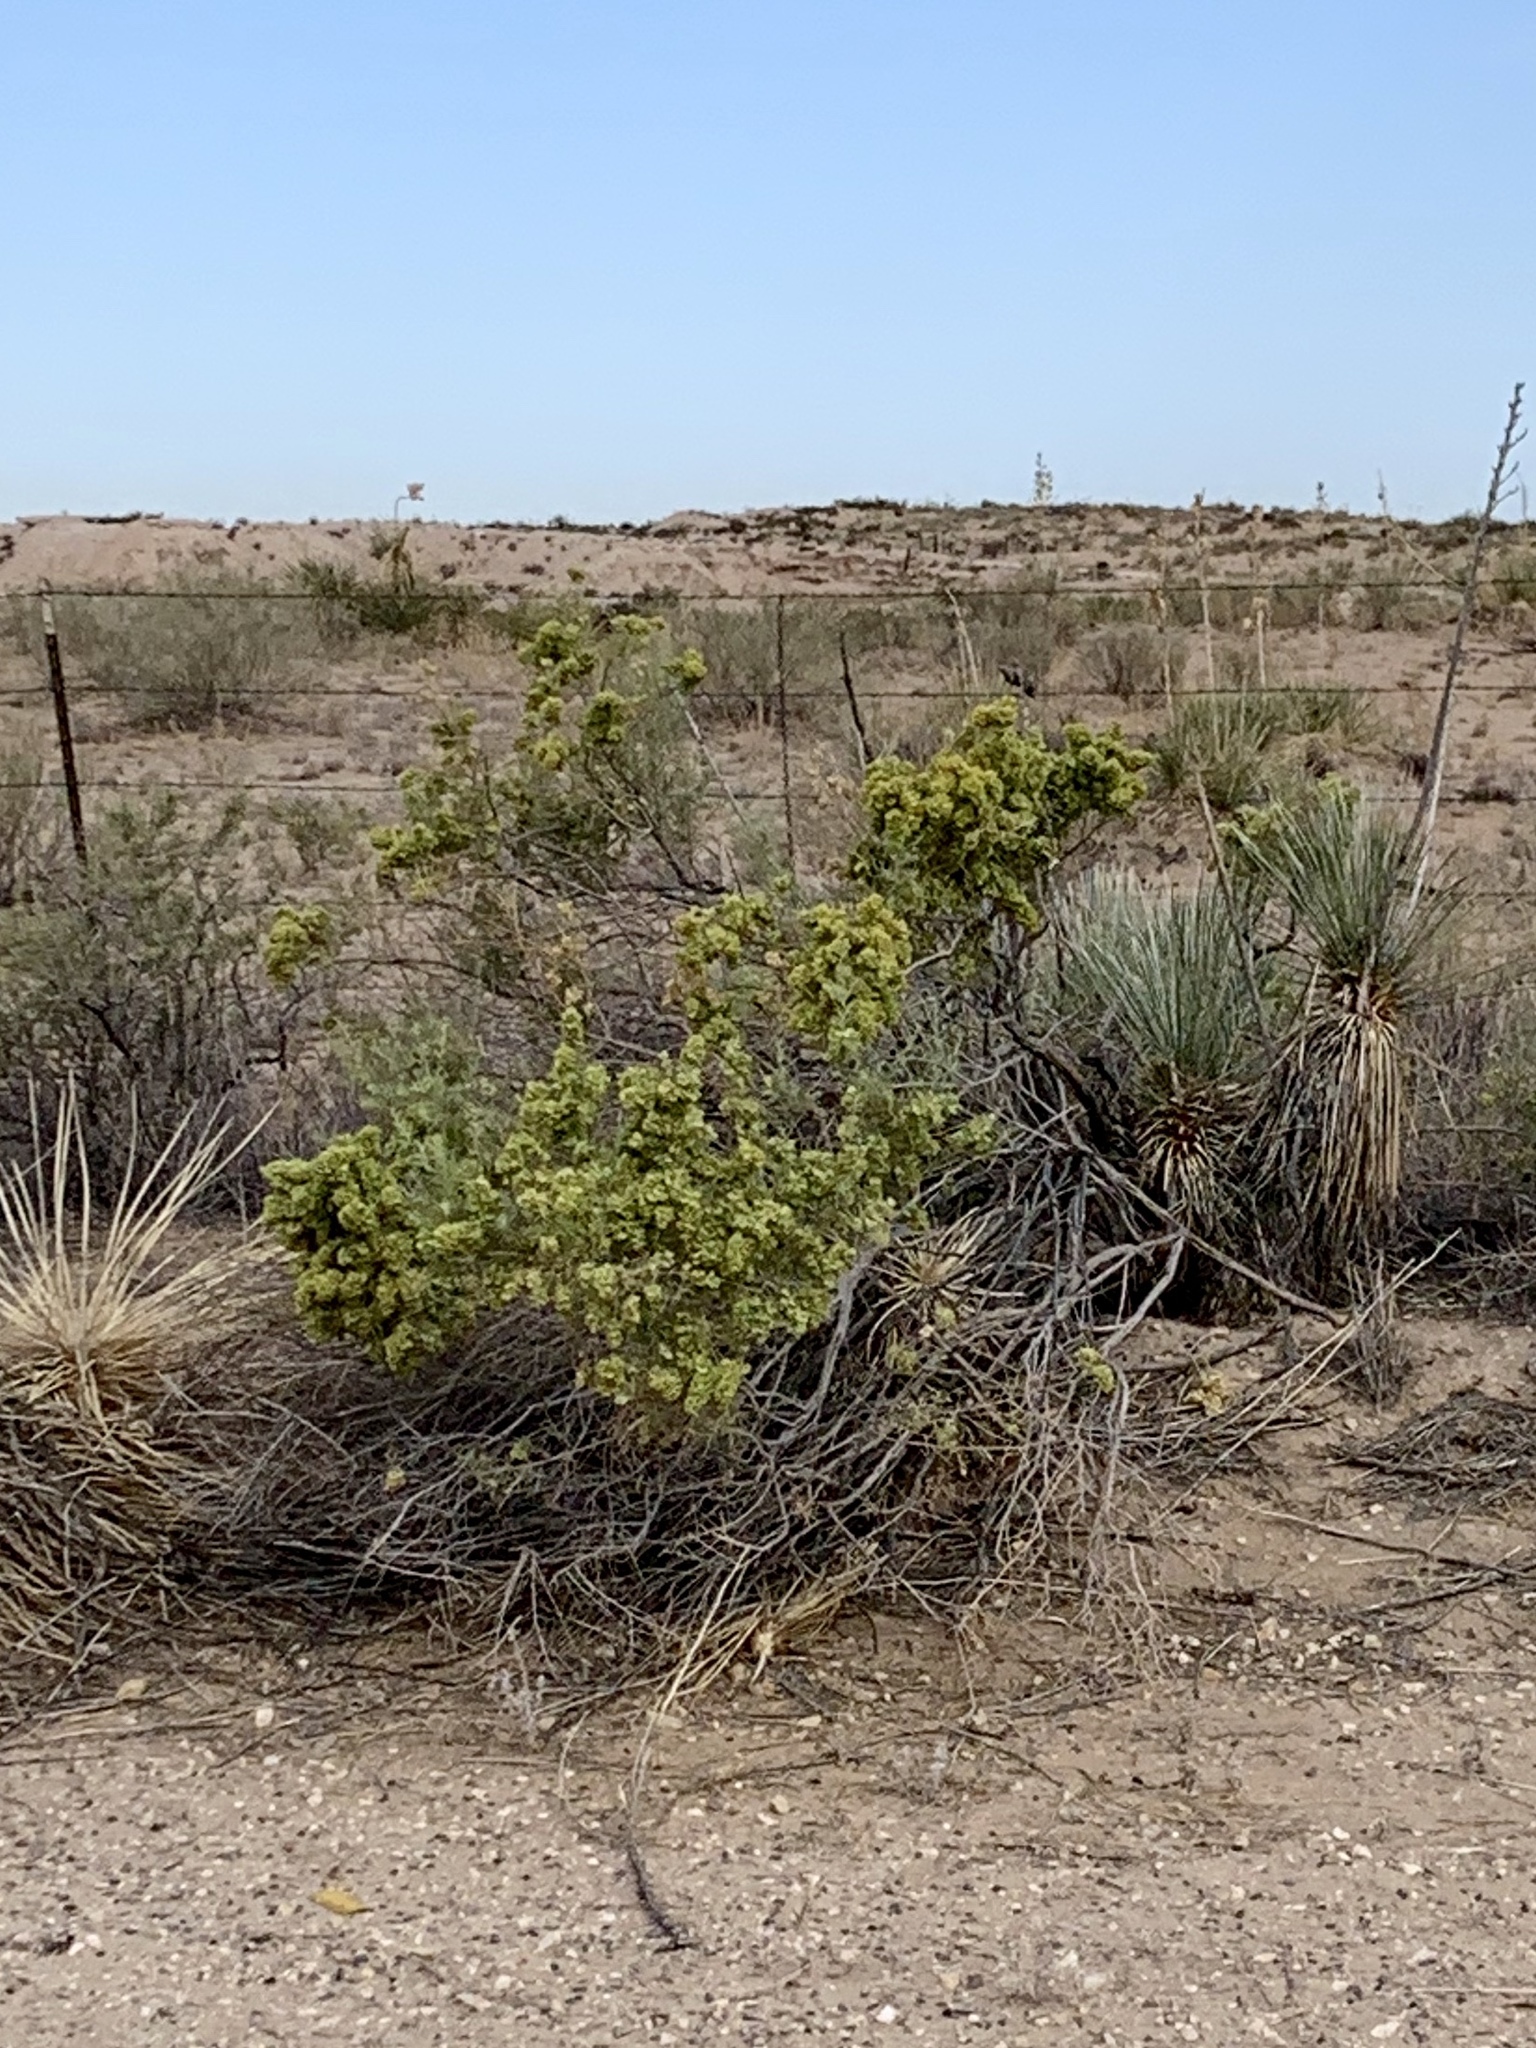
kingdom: Plantae
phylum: Tracheophyta
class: Magnoliopsida
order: Caryophyllales
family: Amaranthaceae
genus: Atriplex
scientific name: Atriplex canescens
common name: Four-wing saltbush
